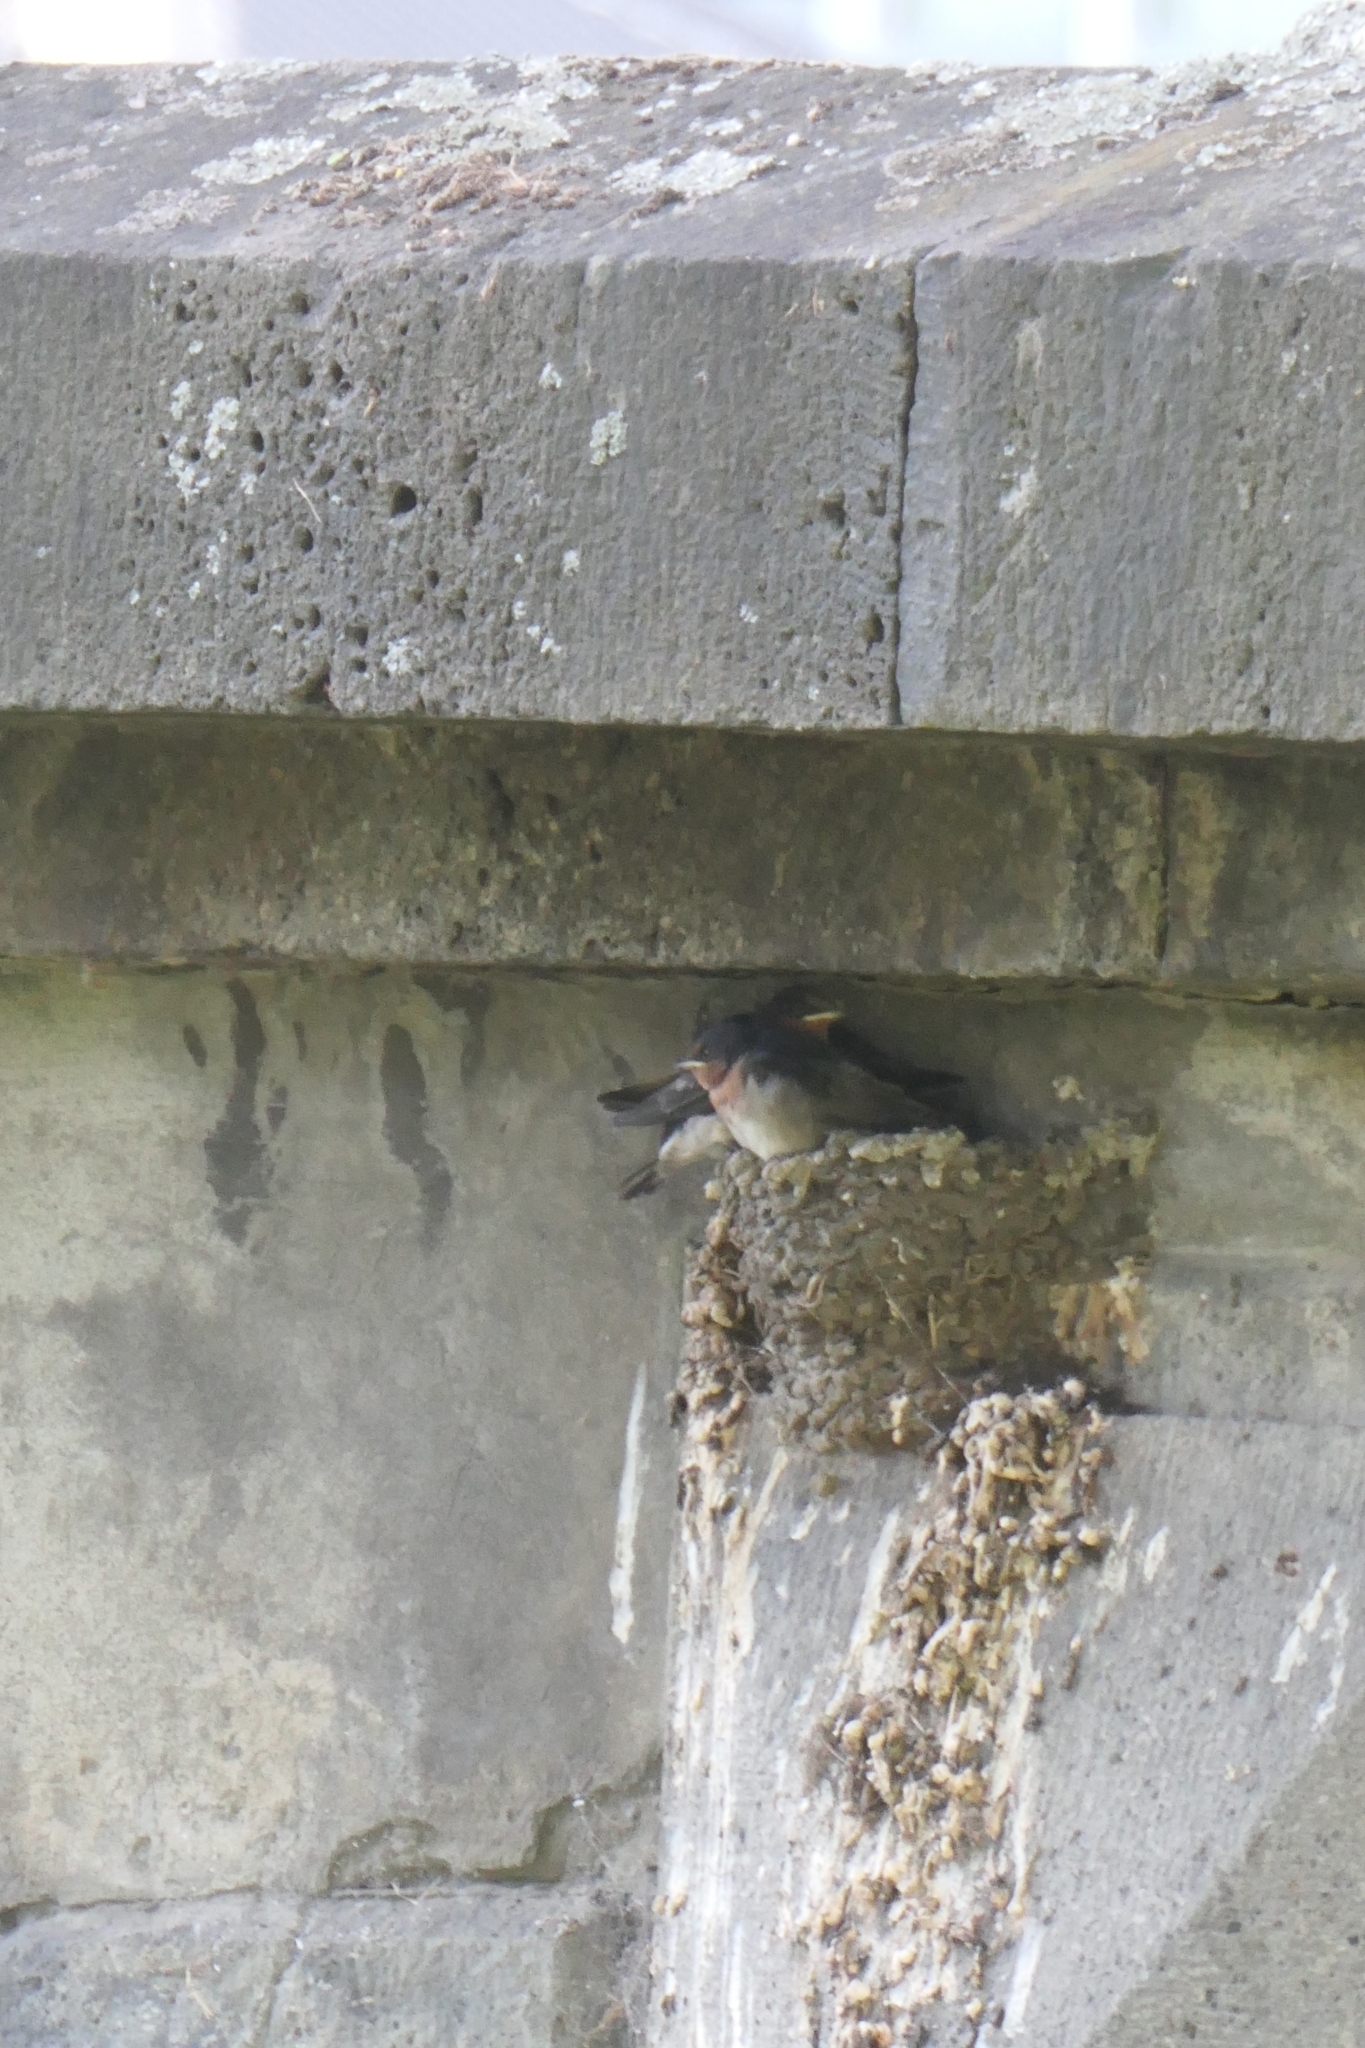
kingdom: Animalia
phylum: Chordata
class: Aves
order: Passeriformes
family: Hirundinidae
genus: Hirundo
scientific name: Hirundo neoxena
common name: Welcome swallow
